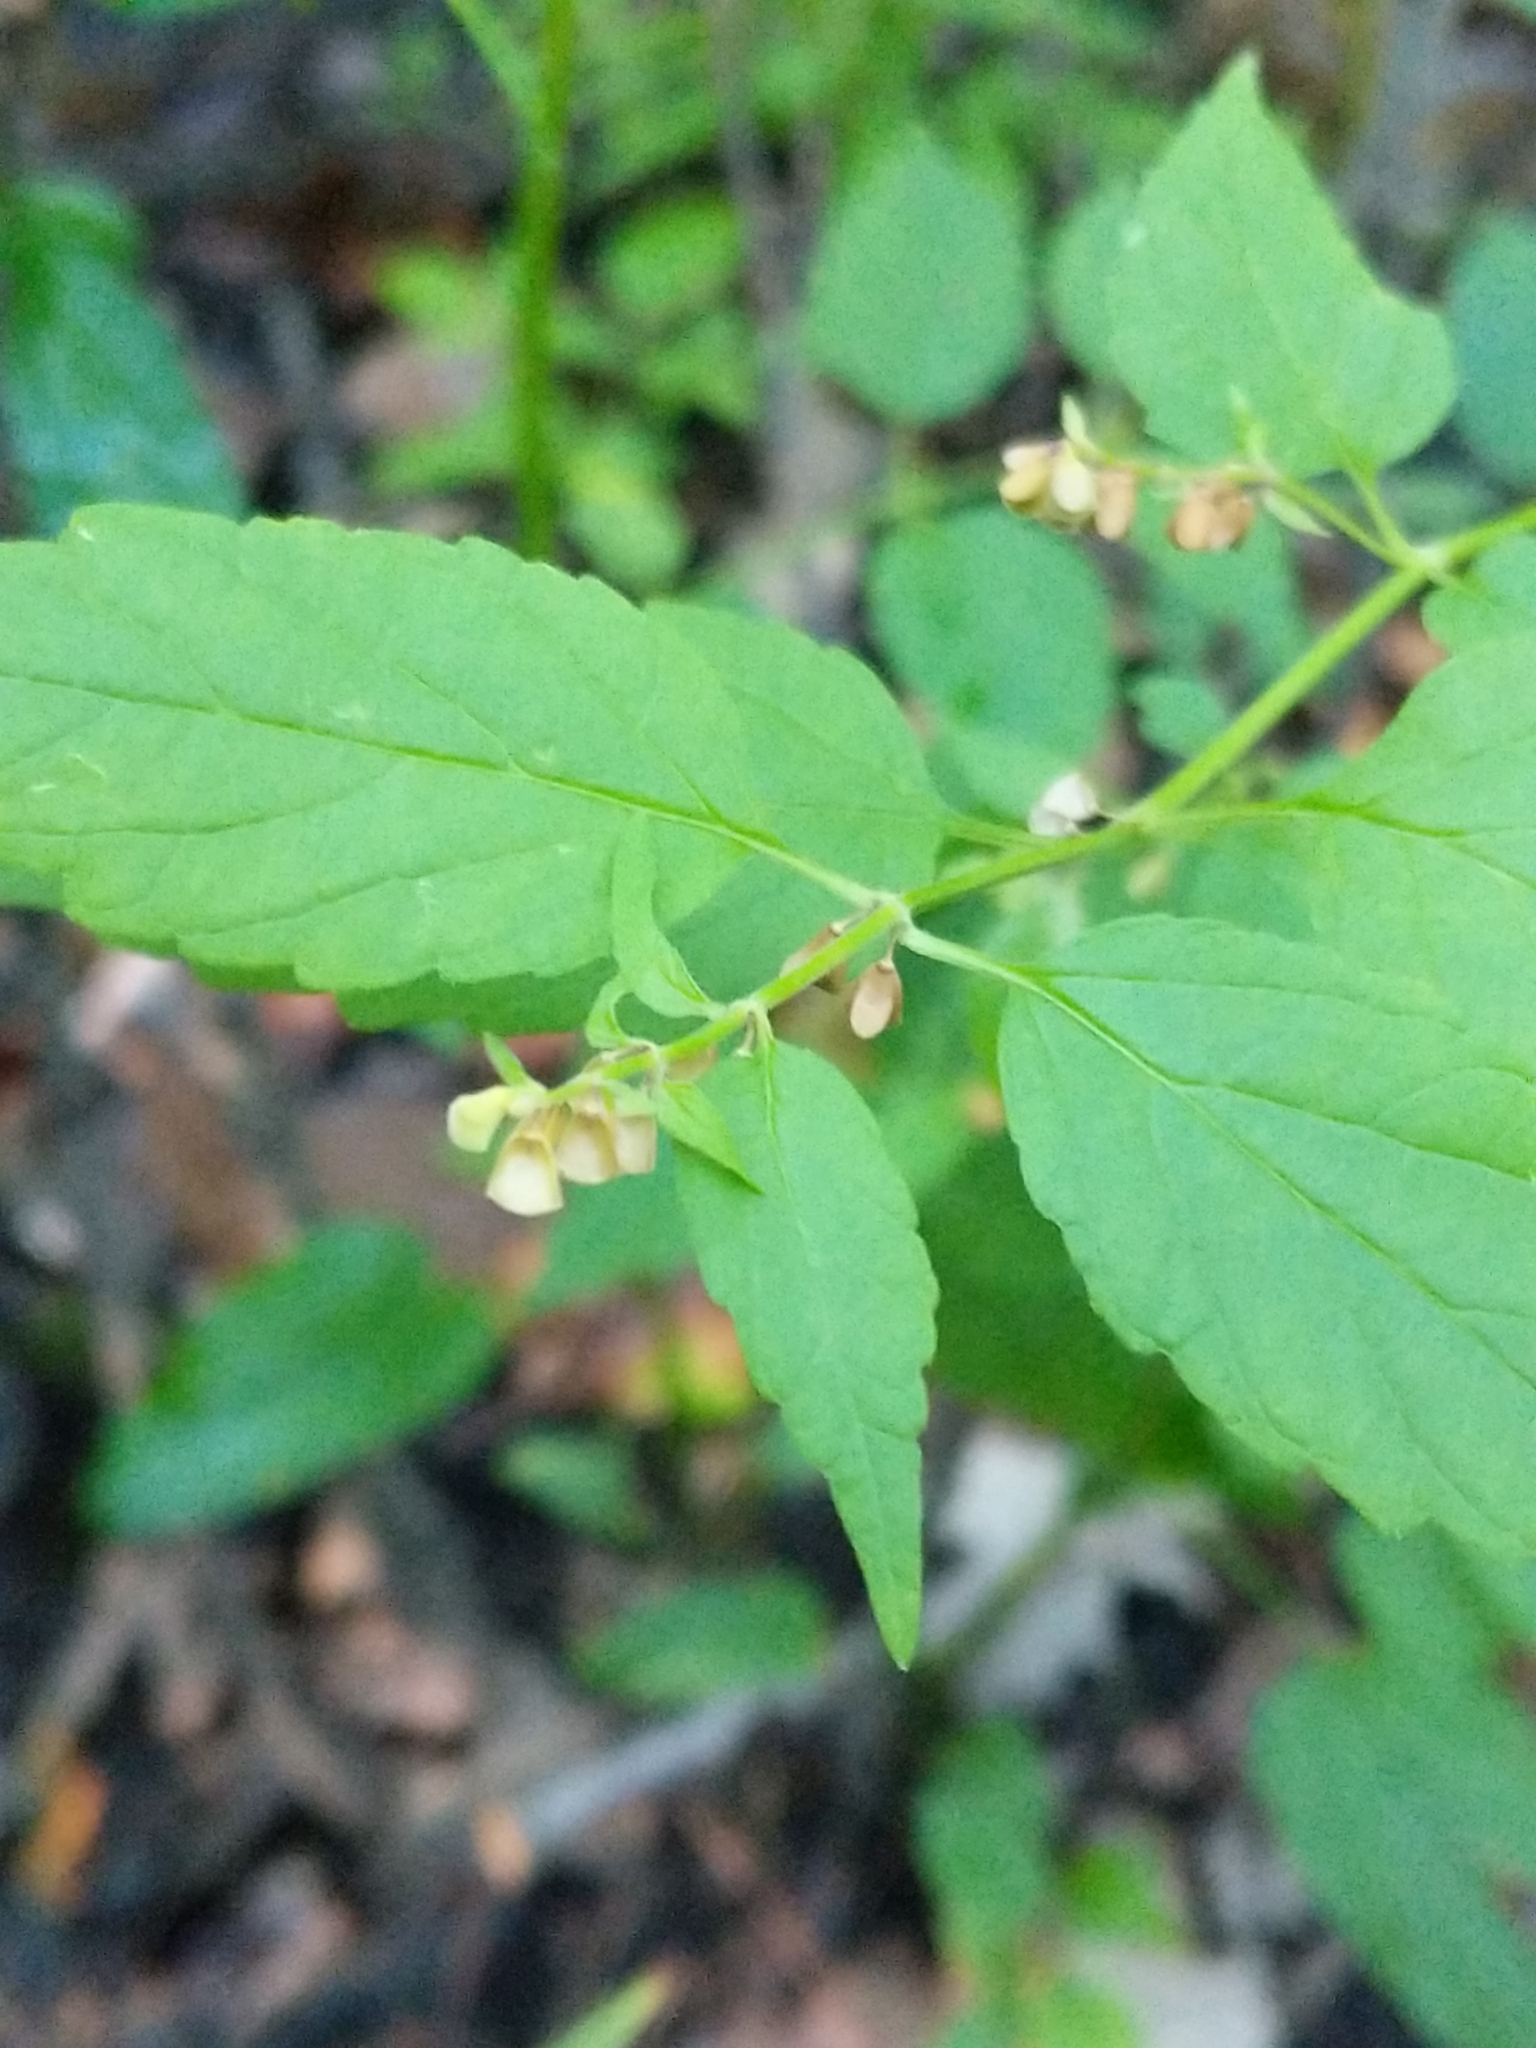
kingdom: Plantae
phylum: Tracheophyta
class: Magnoliopsida
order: Lamiales
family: Lamiaceae
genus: Scutellaria
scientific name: Scutellaria lateriflora
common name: Blue skullcap
